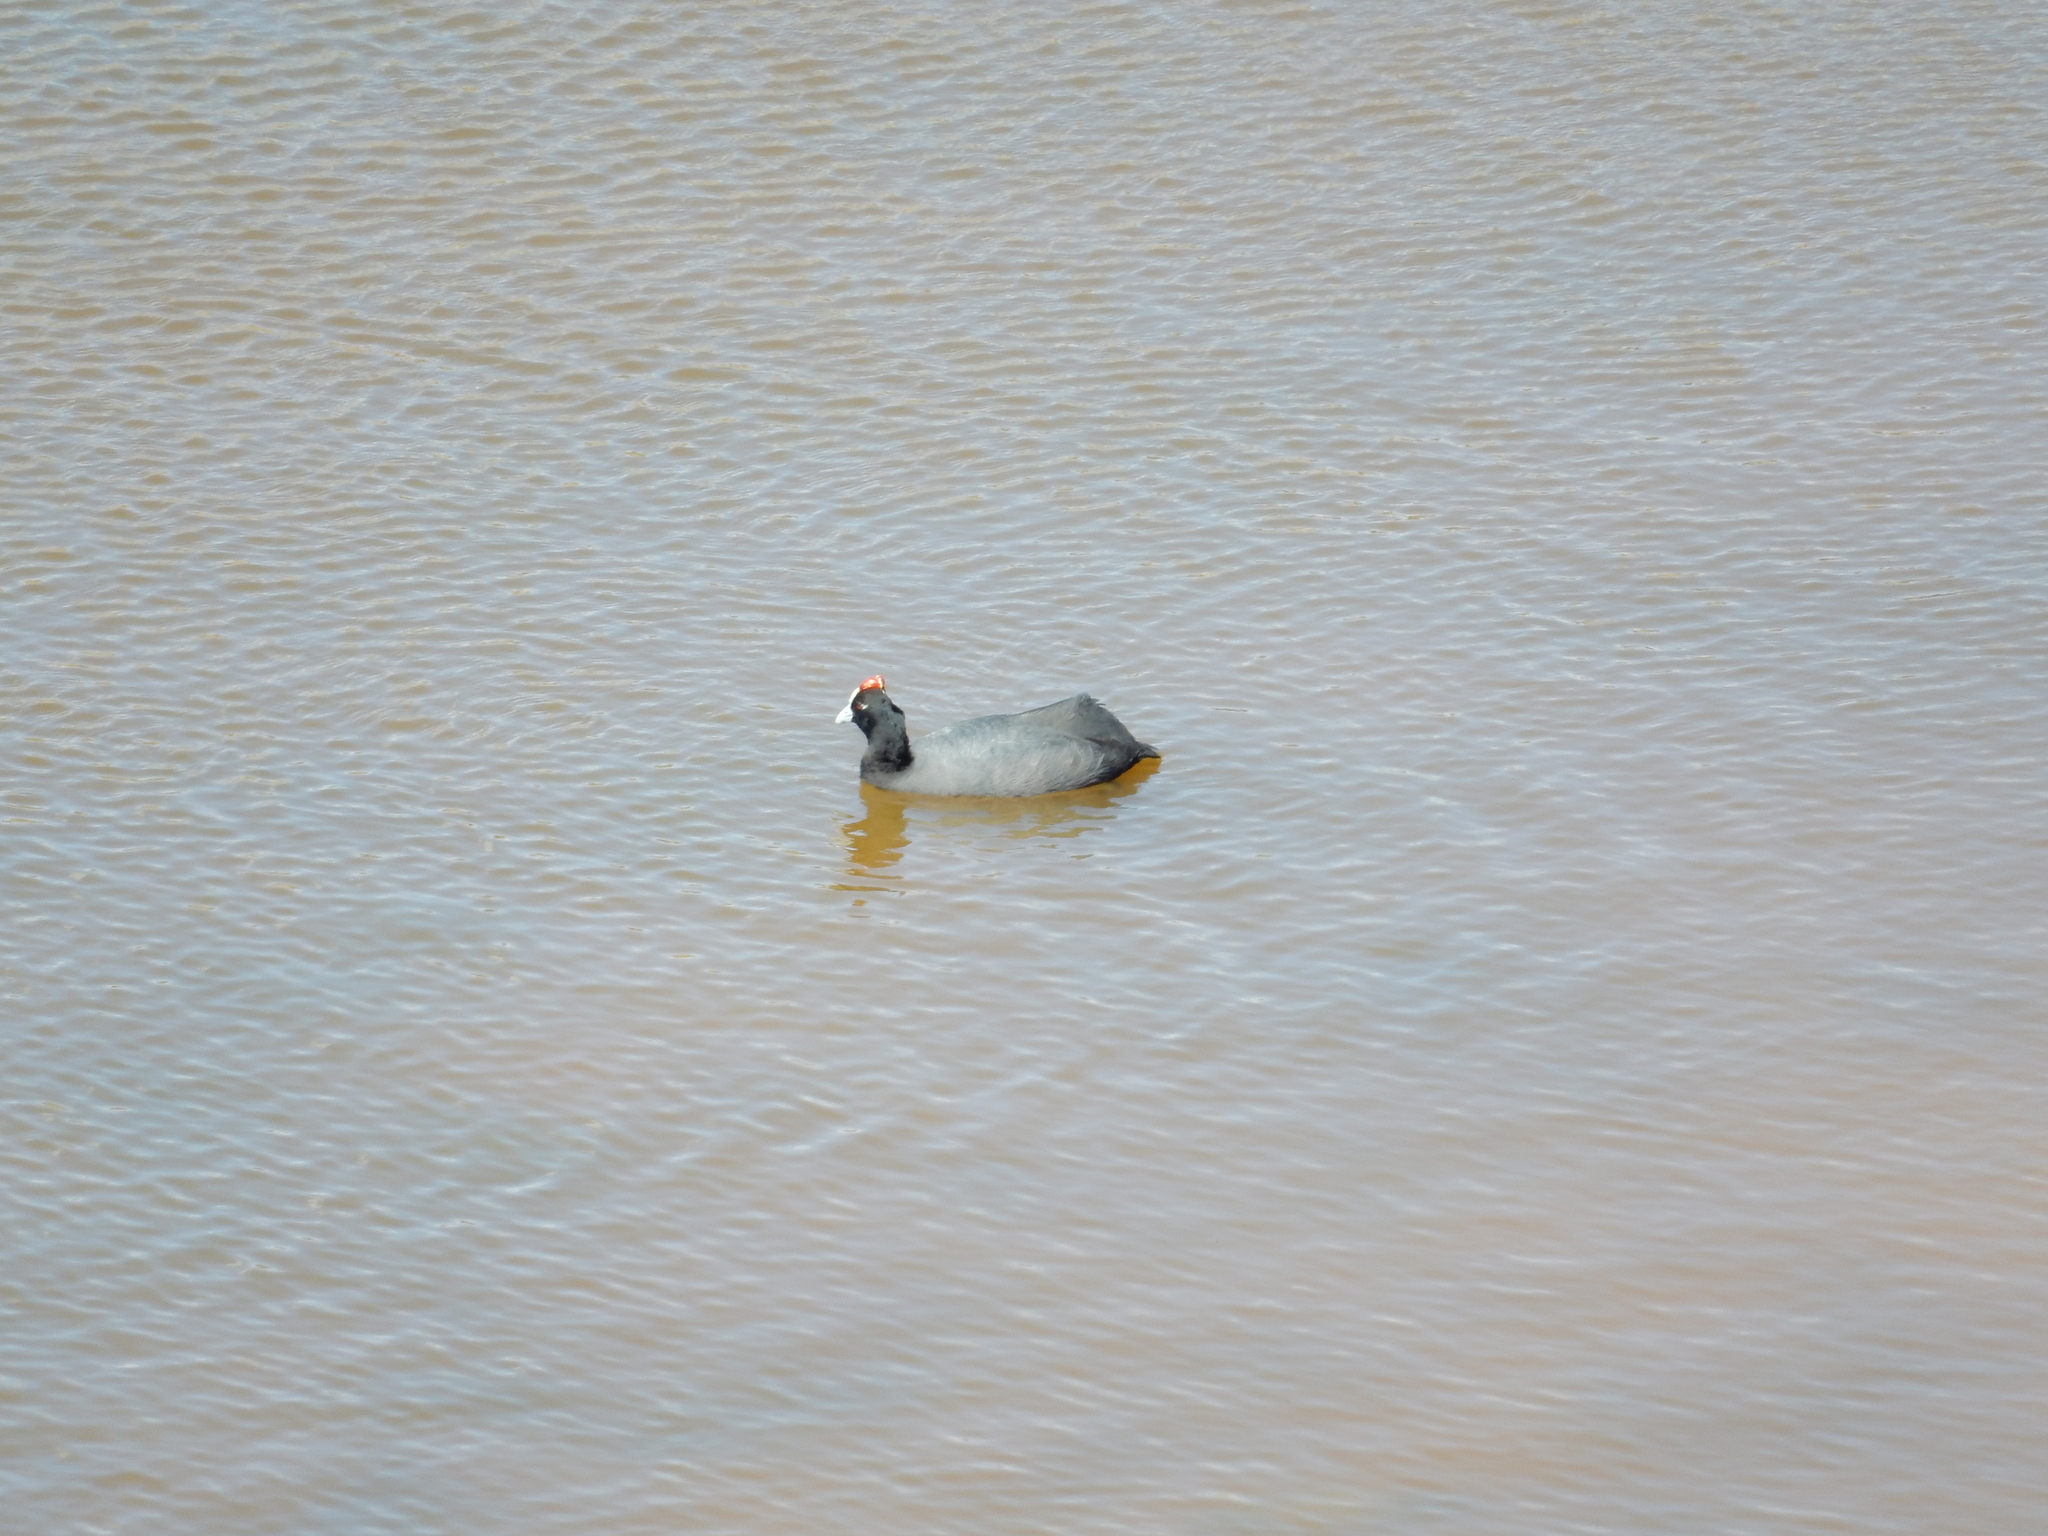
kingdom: Animalia
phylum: Chordata
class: Aves
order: Gruiformes
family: Rallidae
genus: Fulica
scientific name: Fulica cristata
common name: Red-knobbed coot
